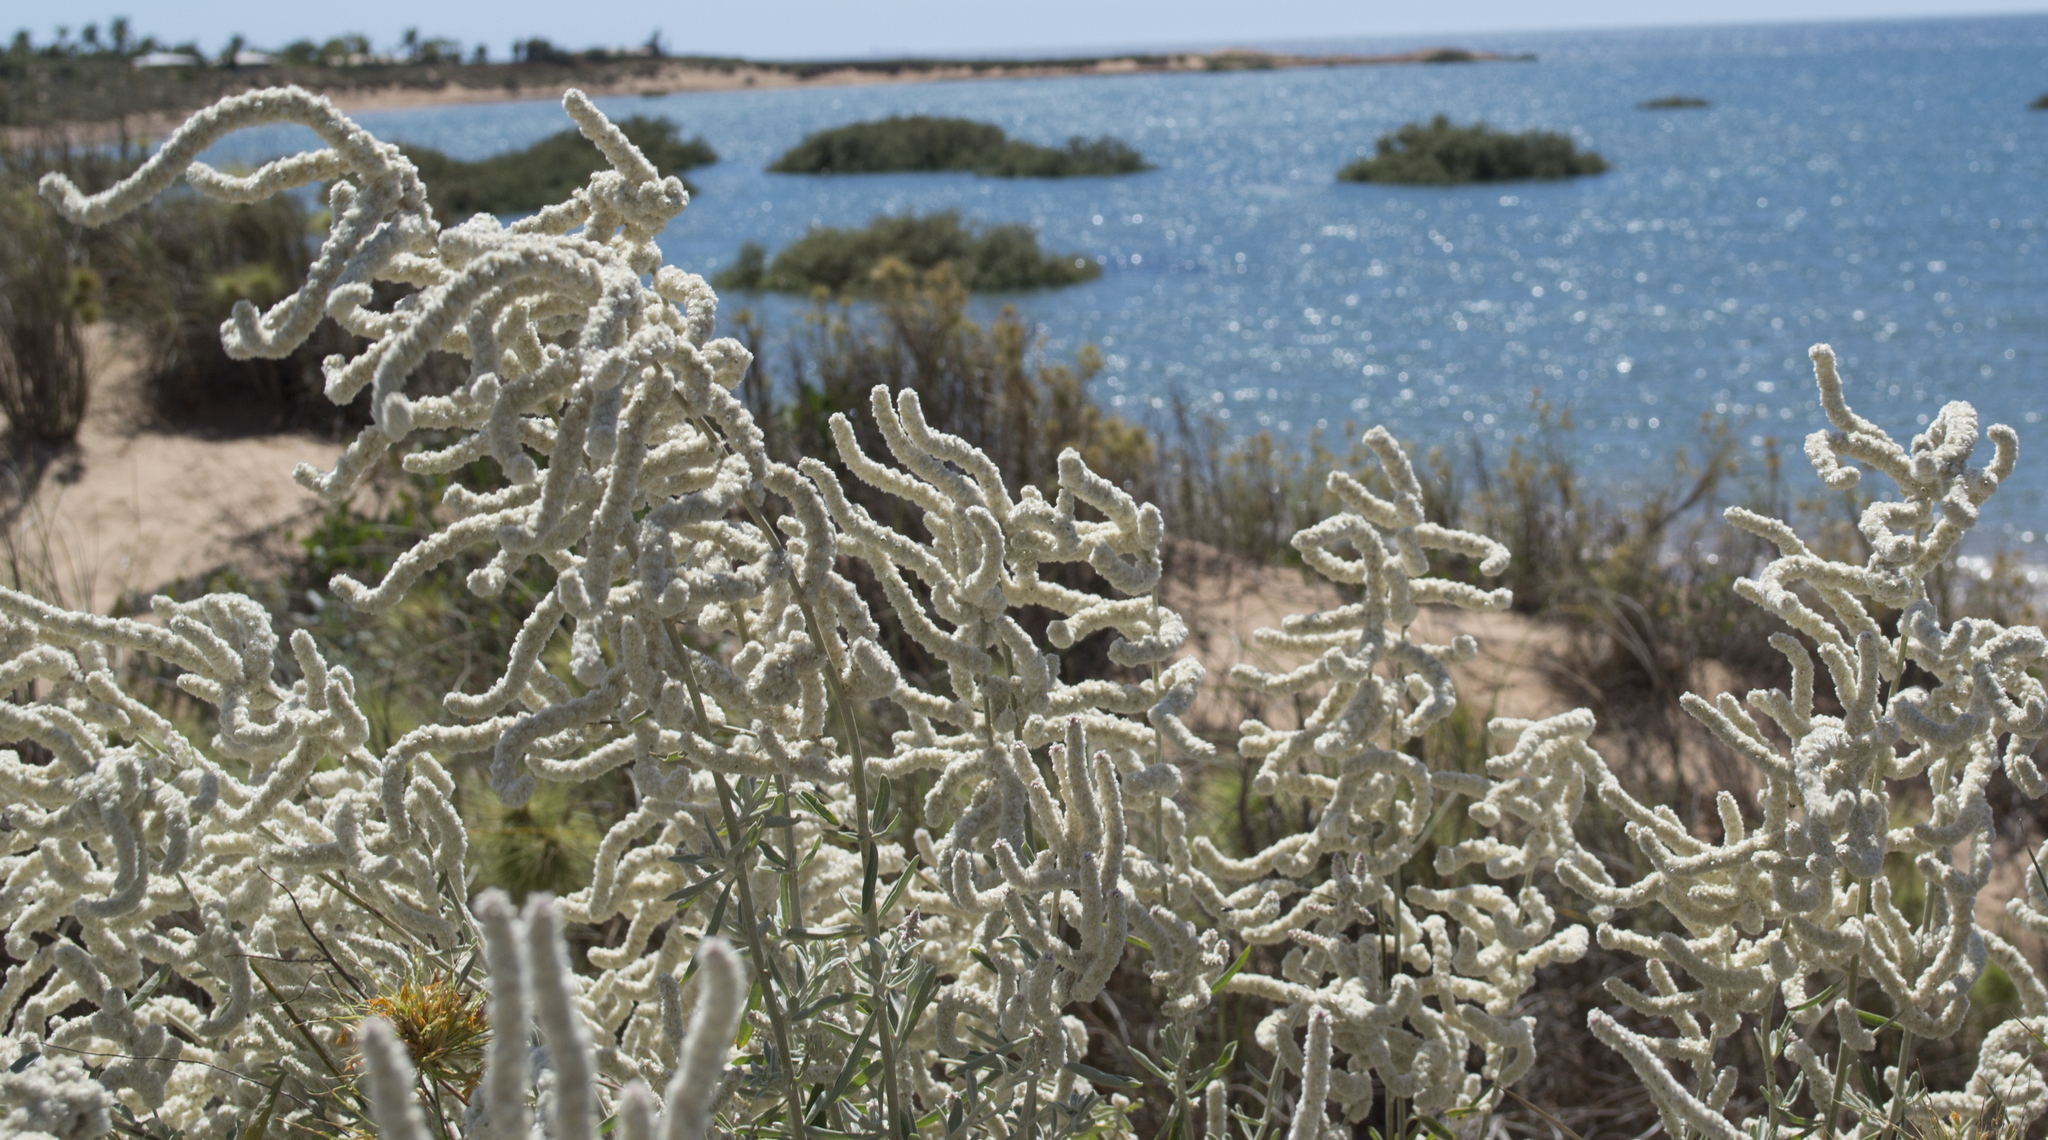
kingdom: Plantae
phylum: Tracheophyta
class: Magnoliopsida
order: Caryophyllales
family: Amaranthaceae
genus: Aerva
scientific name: Aerva javanica
